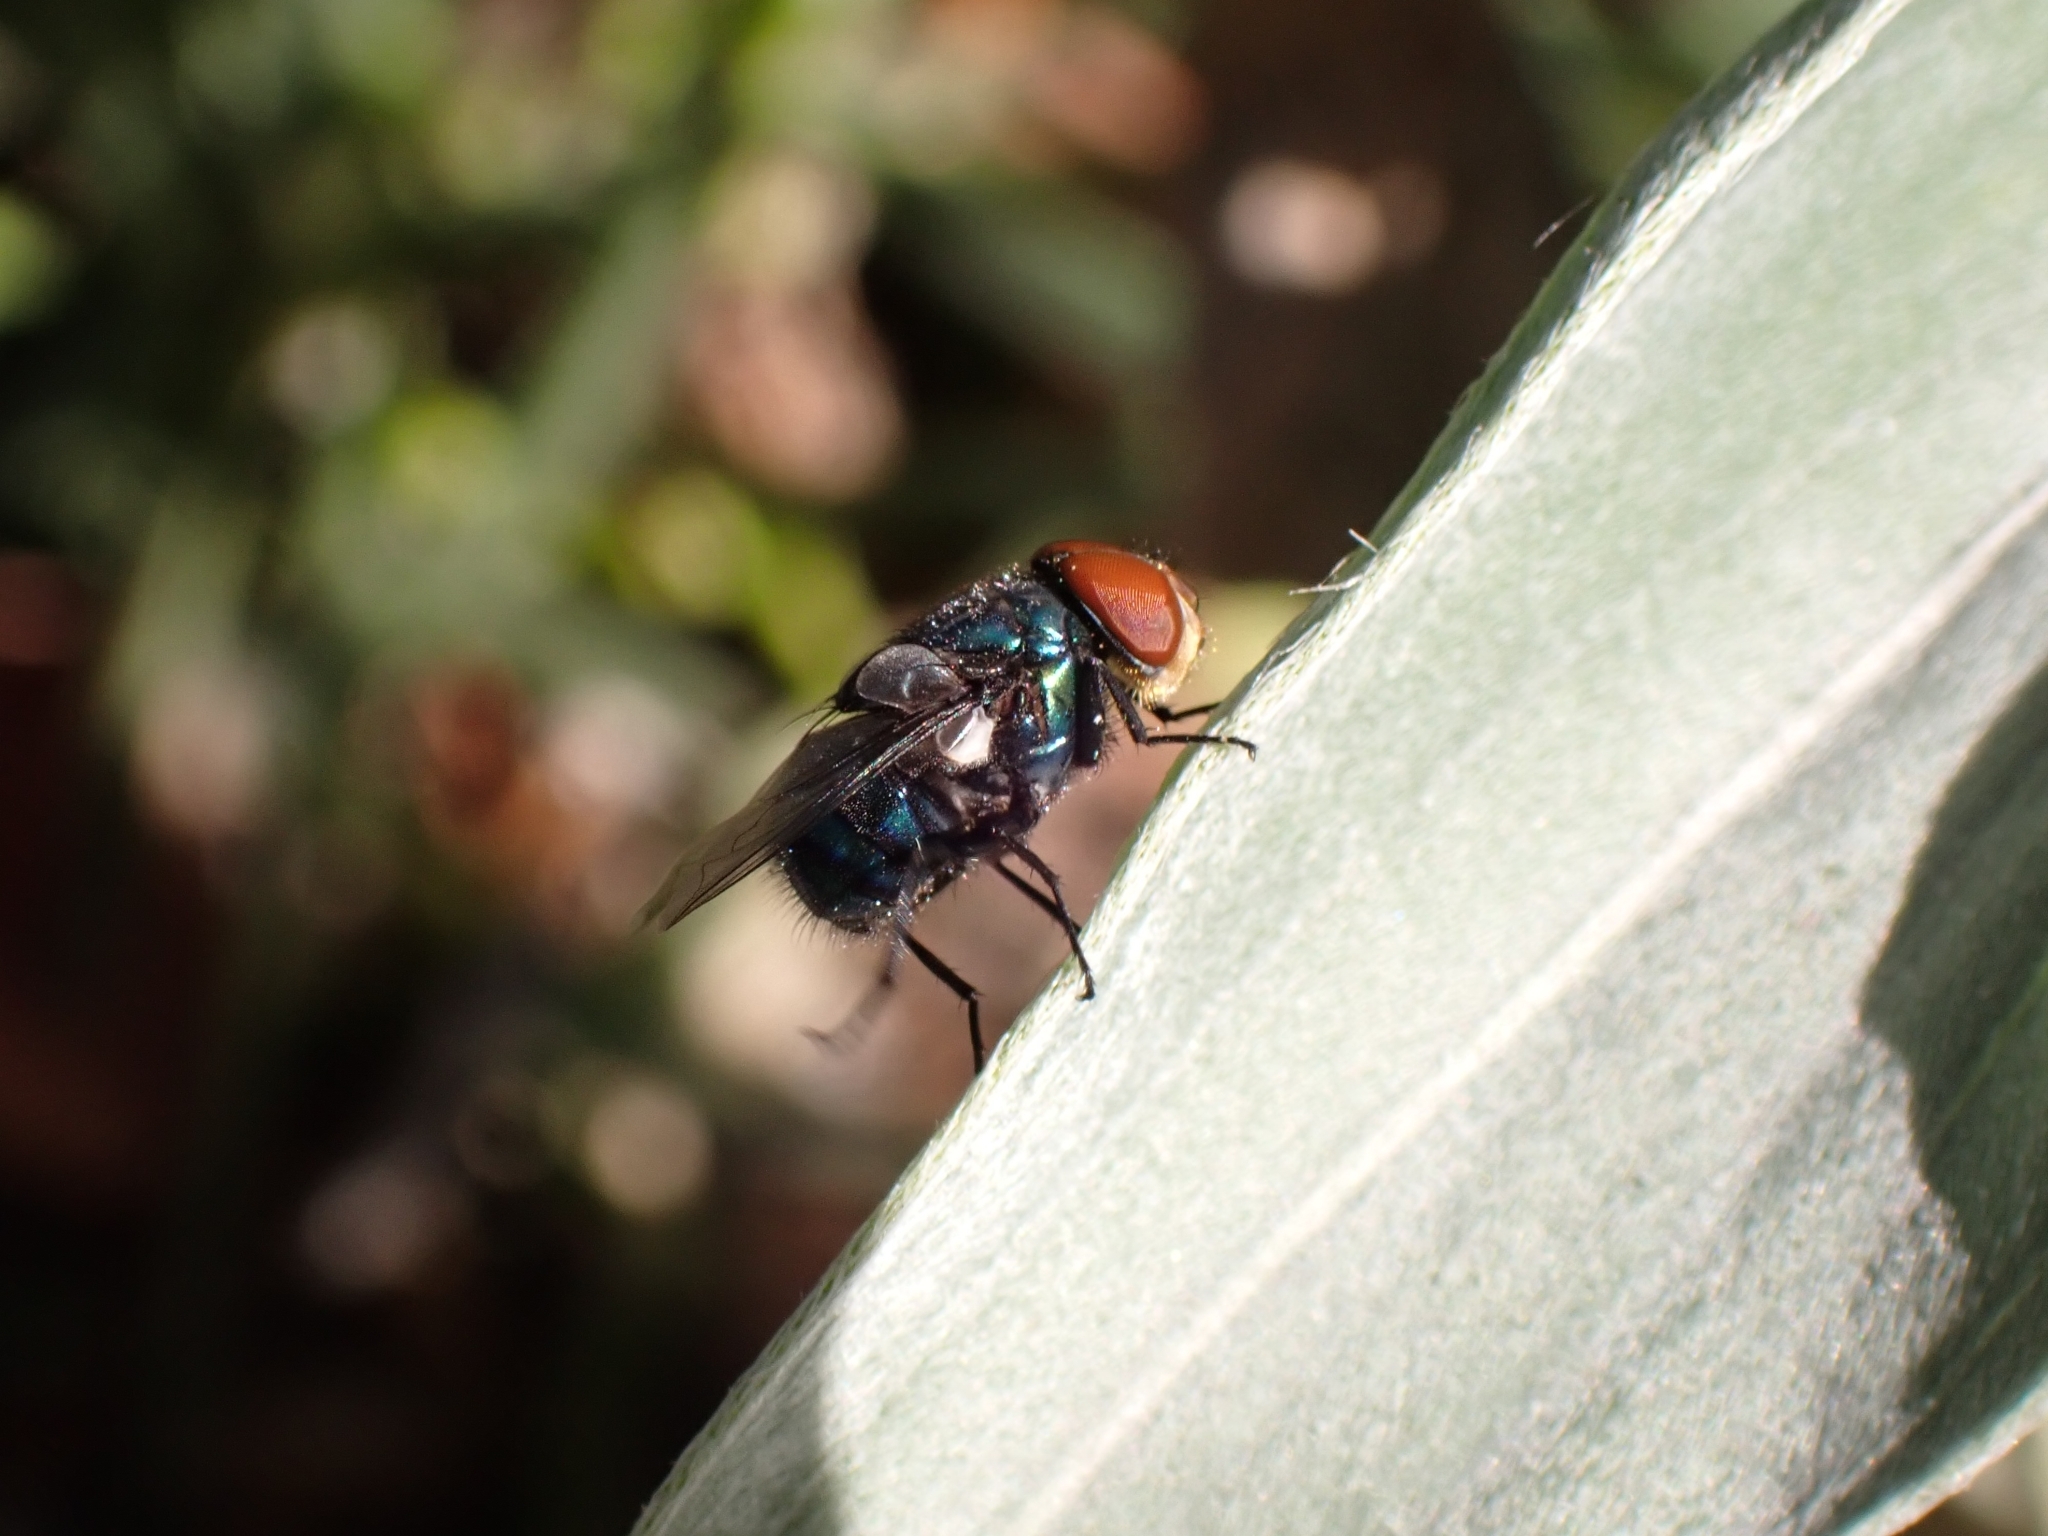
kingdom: Animalia
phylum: Arthropoda
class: Insecta
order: Diptera
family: Calliphoridae
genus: Chrysomya
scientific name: Chrysomya megacephala
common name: Blow fly
